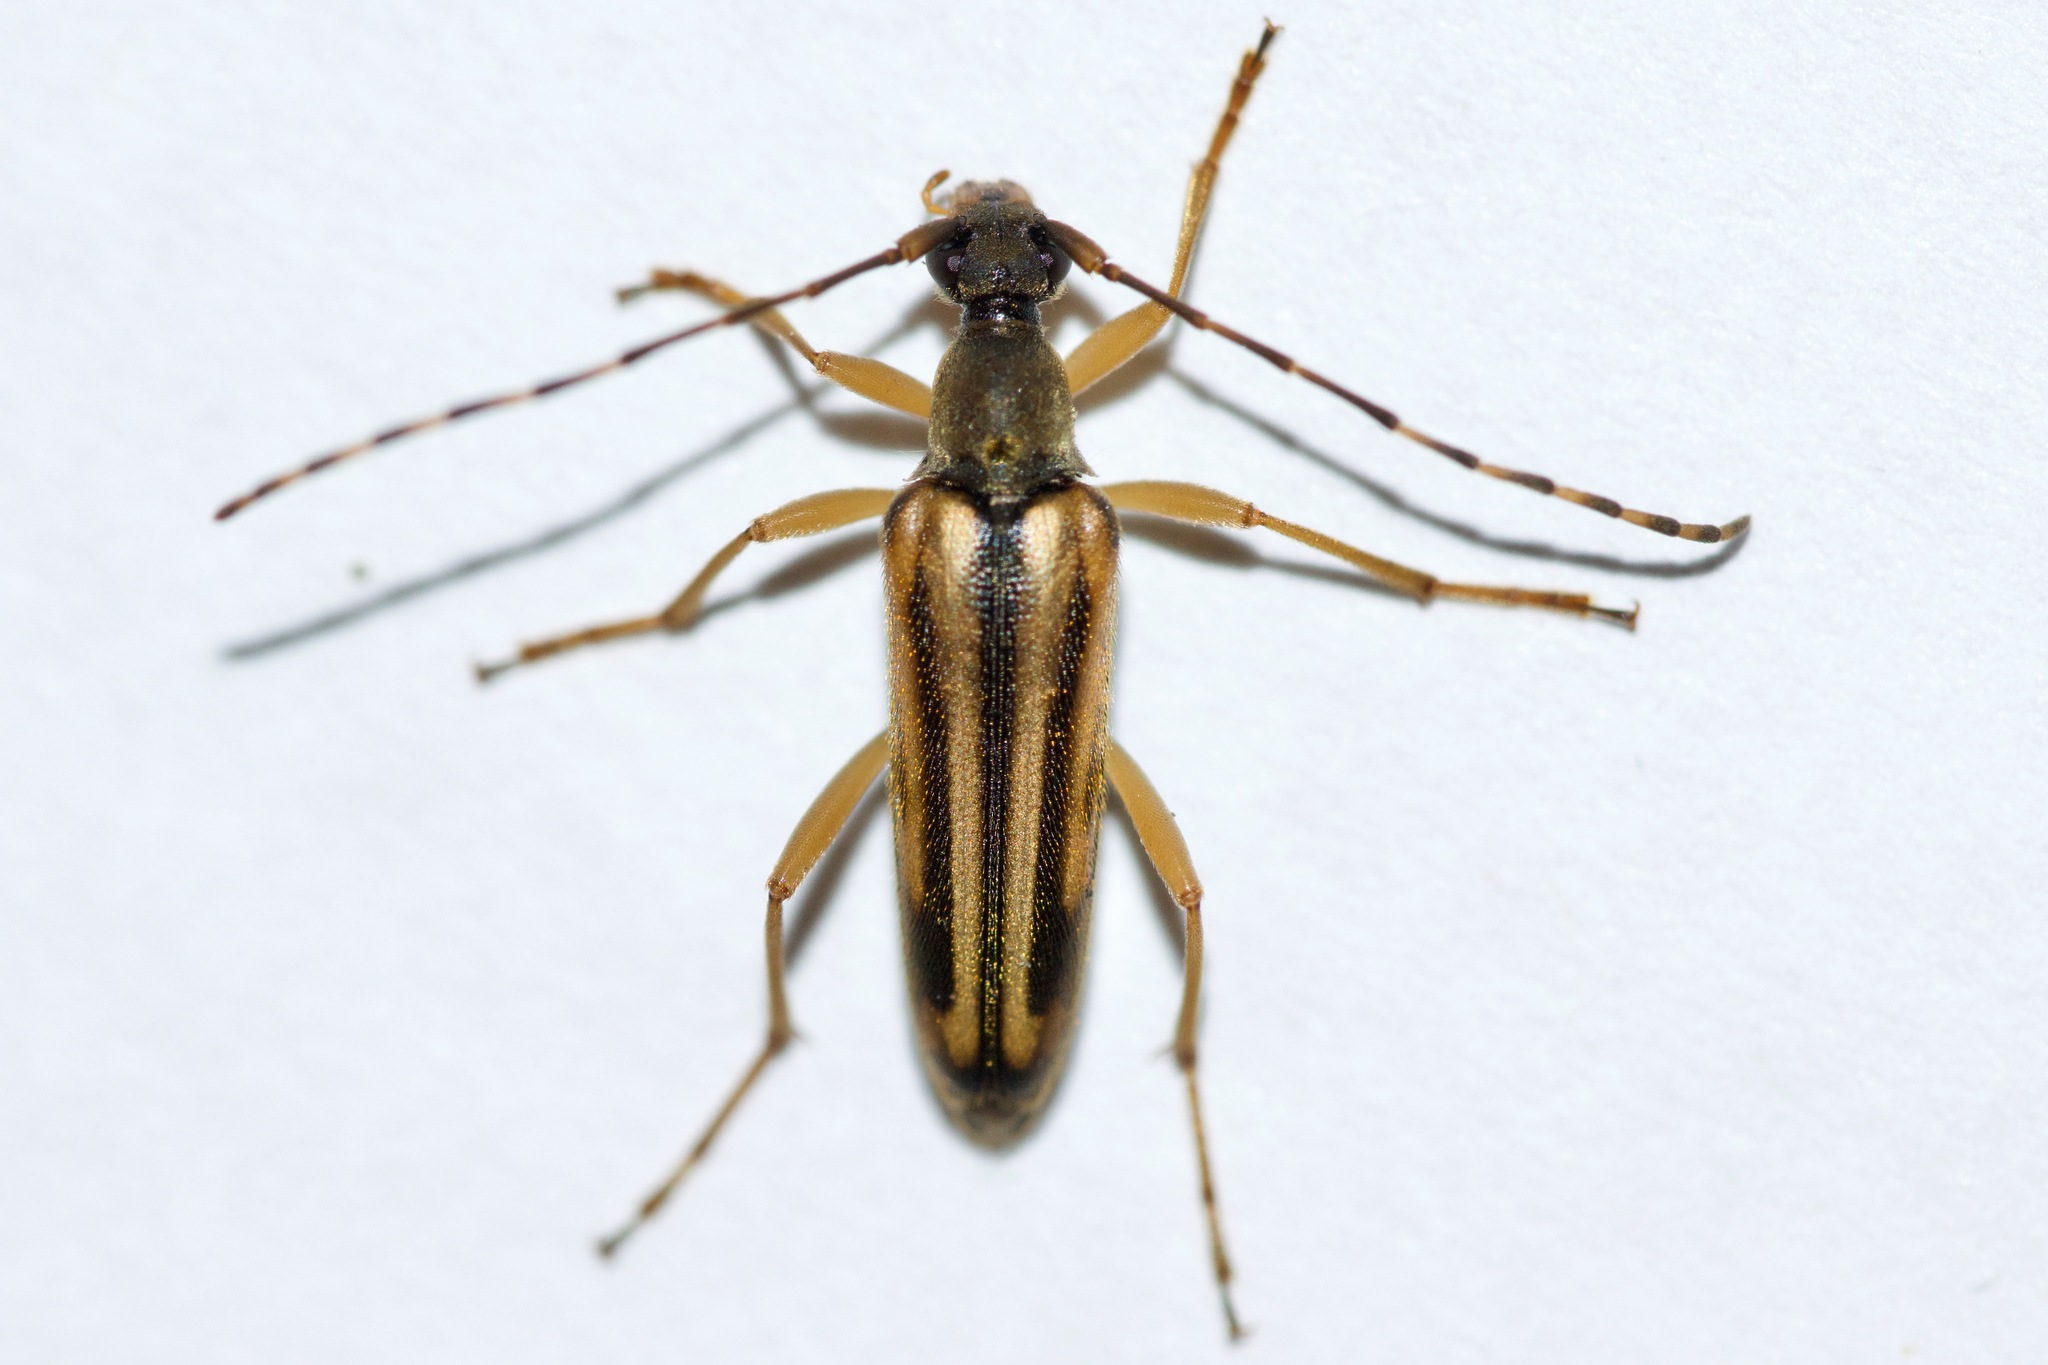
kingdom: Animalia
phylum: Arthropoda
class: Insecta
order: Coleoptera
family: Cerambycidae
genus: Analeptura
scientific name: Analeptura lineola
